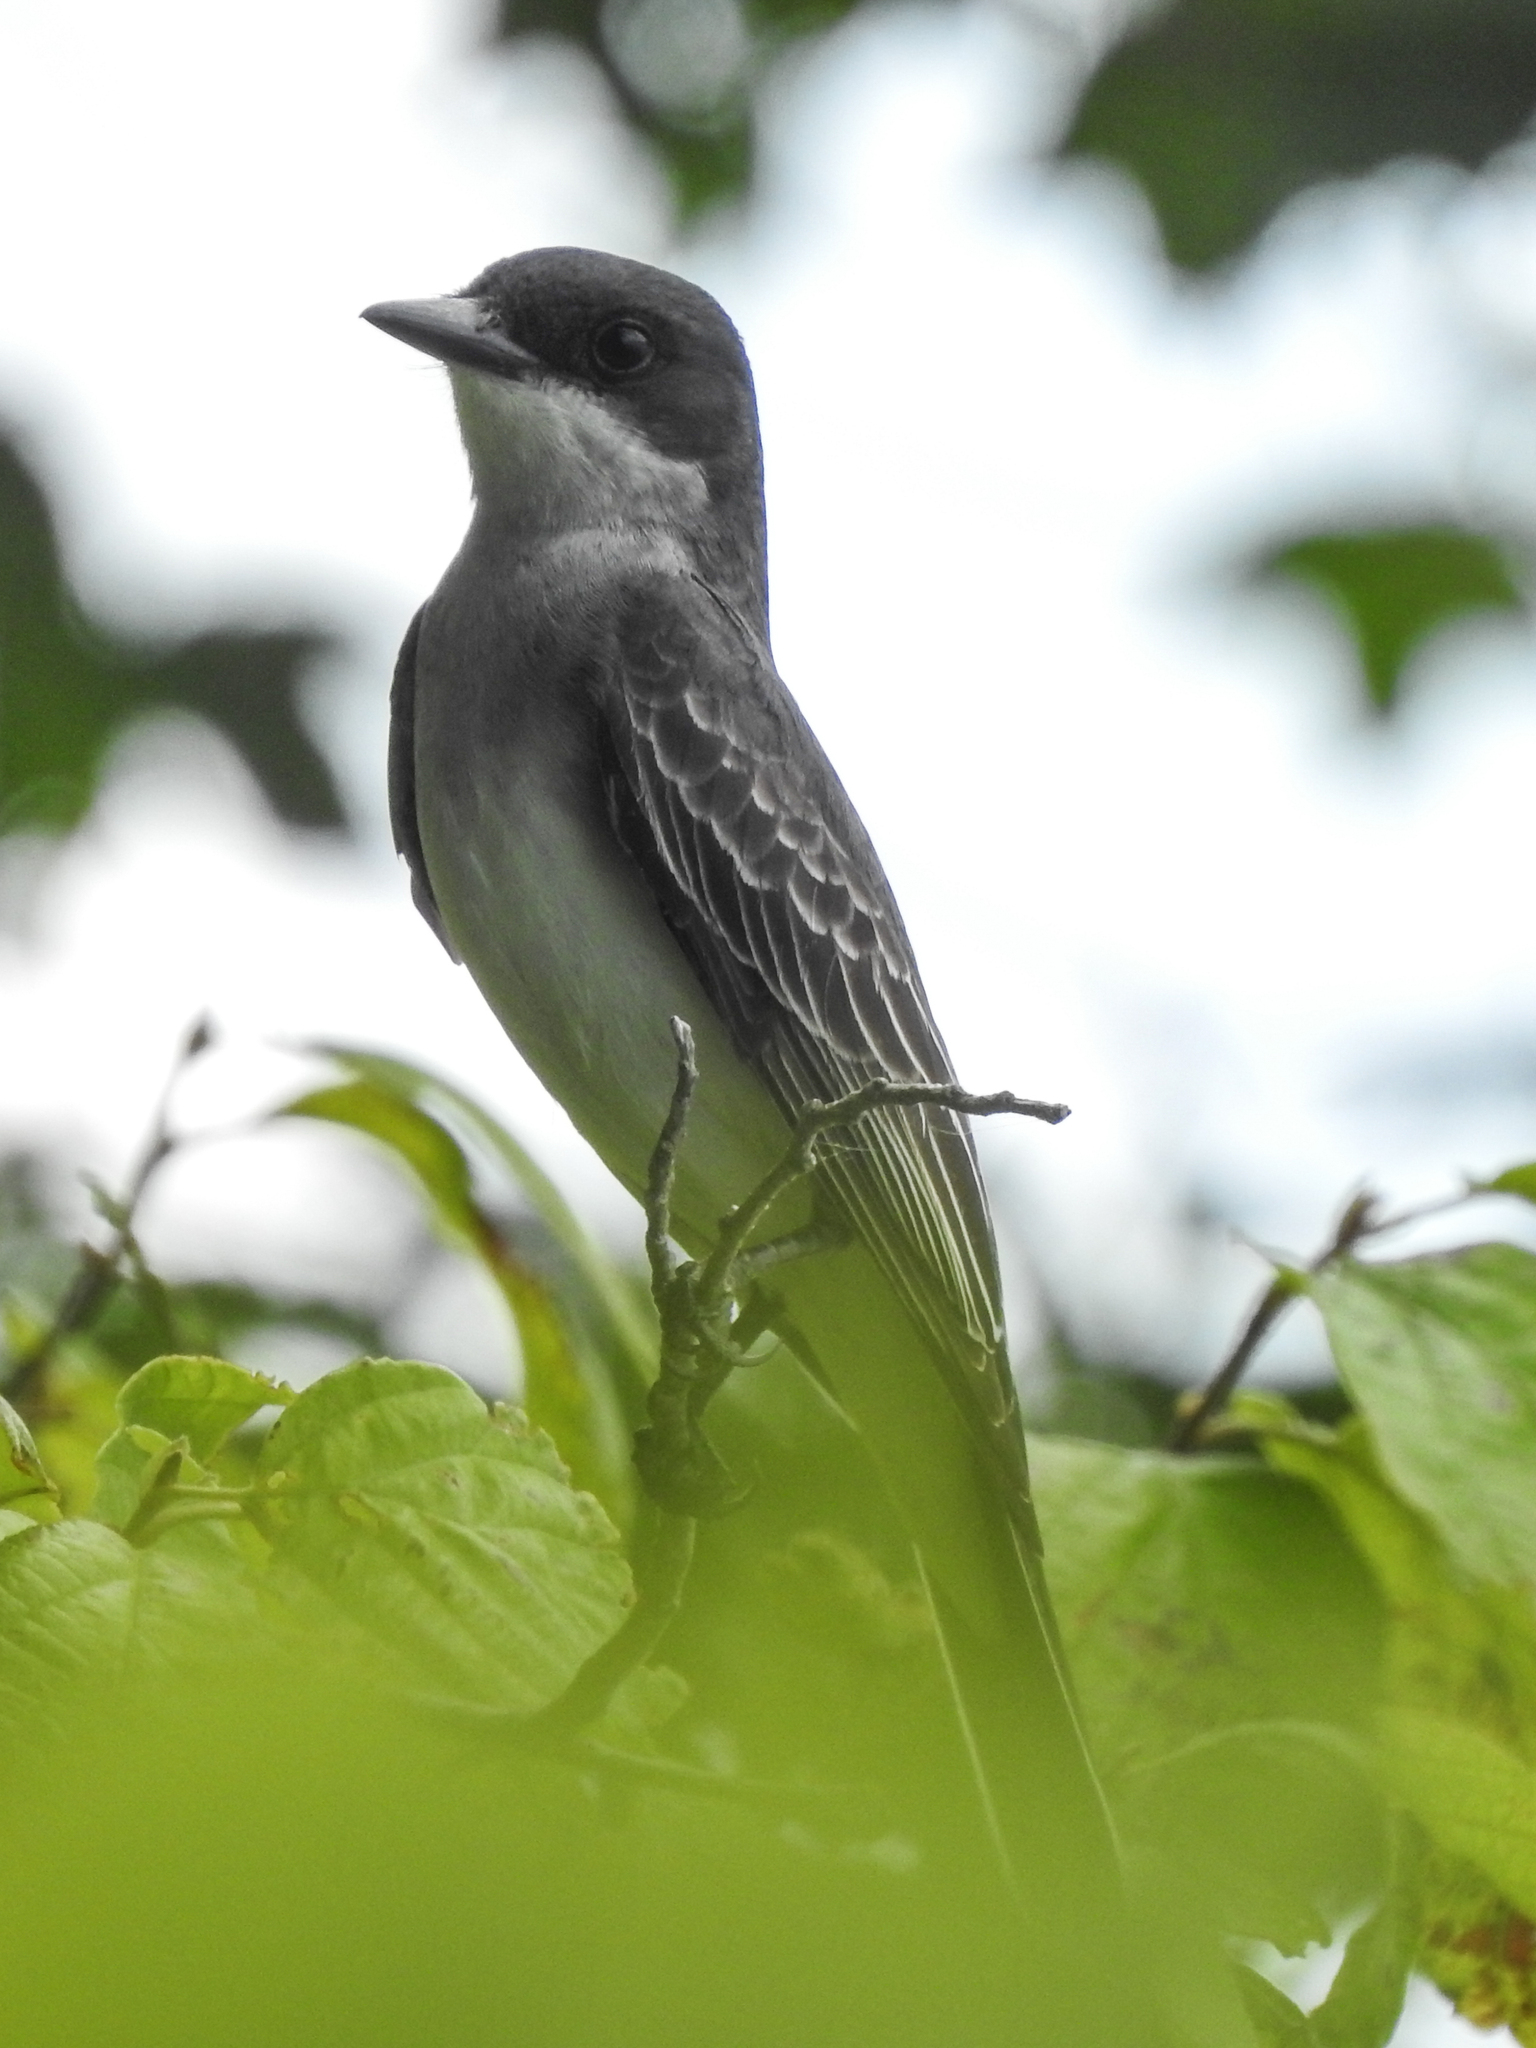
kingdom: Animalia
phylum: Chordata
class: Aves
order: Passeriformes
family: Tyrannidae
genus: Tyrannus
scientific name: Tyrannus tyrannus
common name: Eastern kingbird
